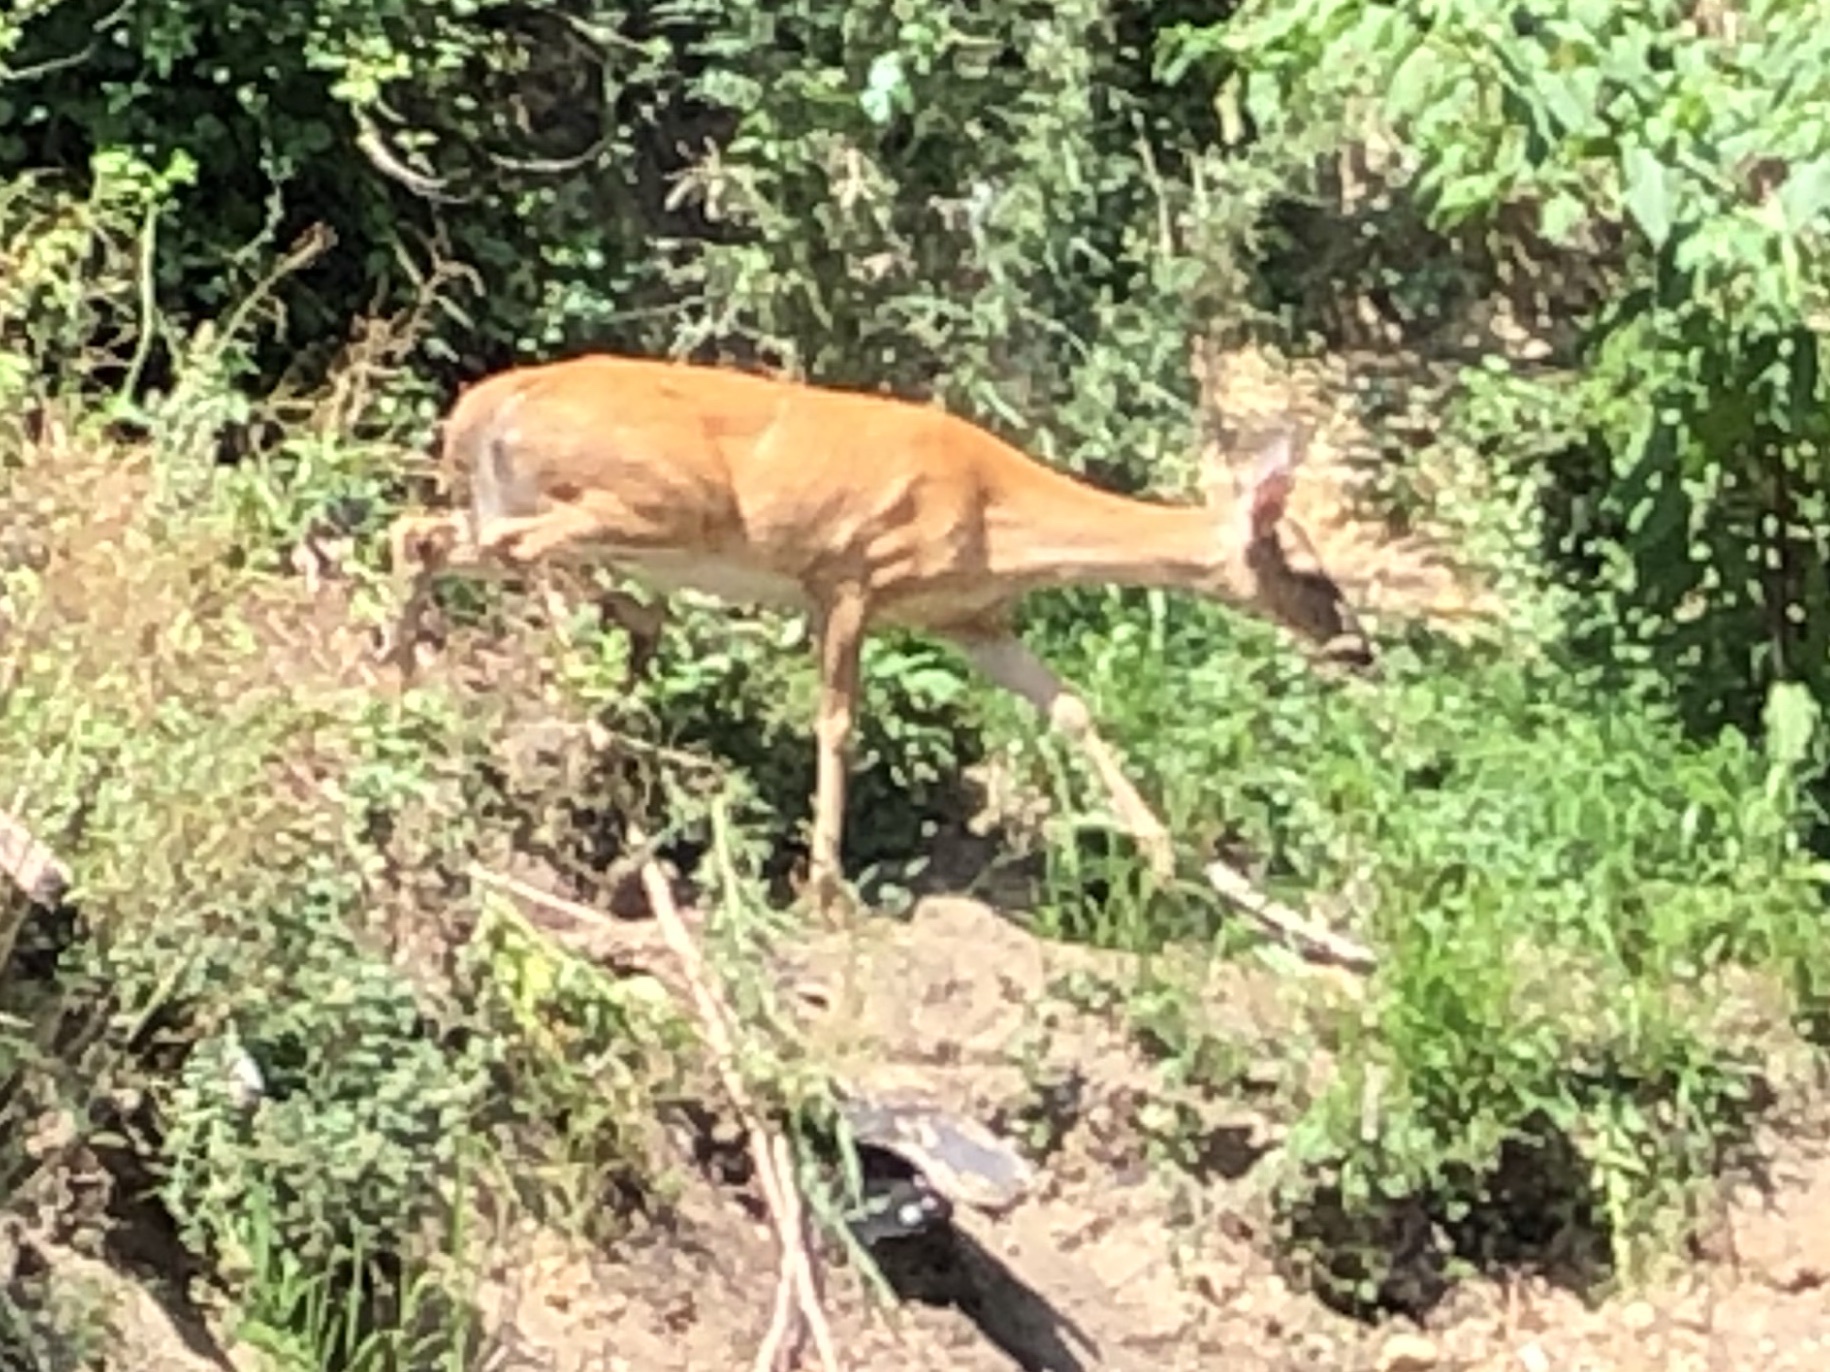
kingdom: Animalia
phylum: Chordata
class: Mammalia
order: Artiodactyla
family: Cervidae
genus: Odocoileus
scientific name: Odocoileus virginianus
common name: White-tailed deer
